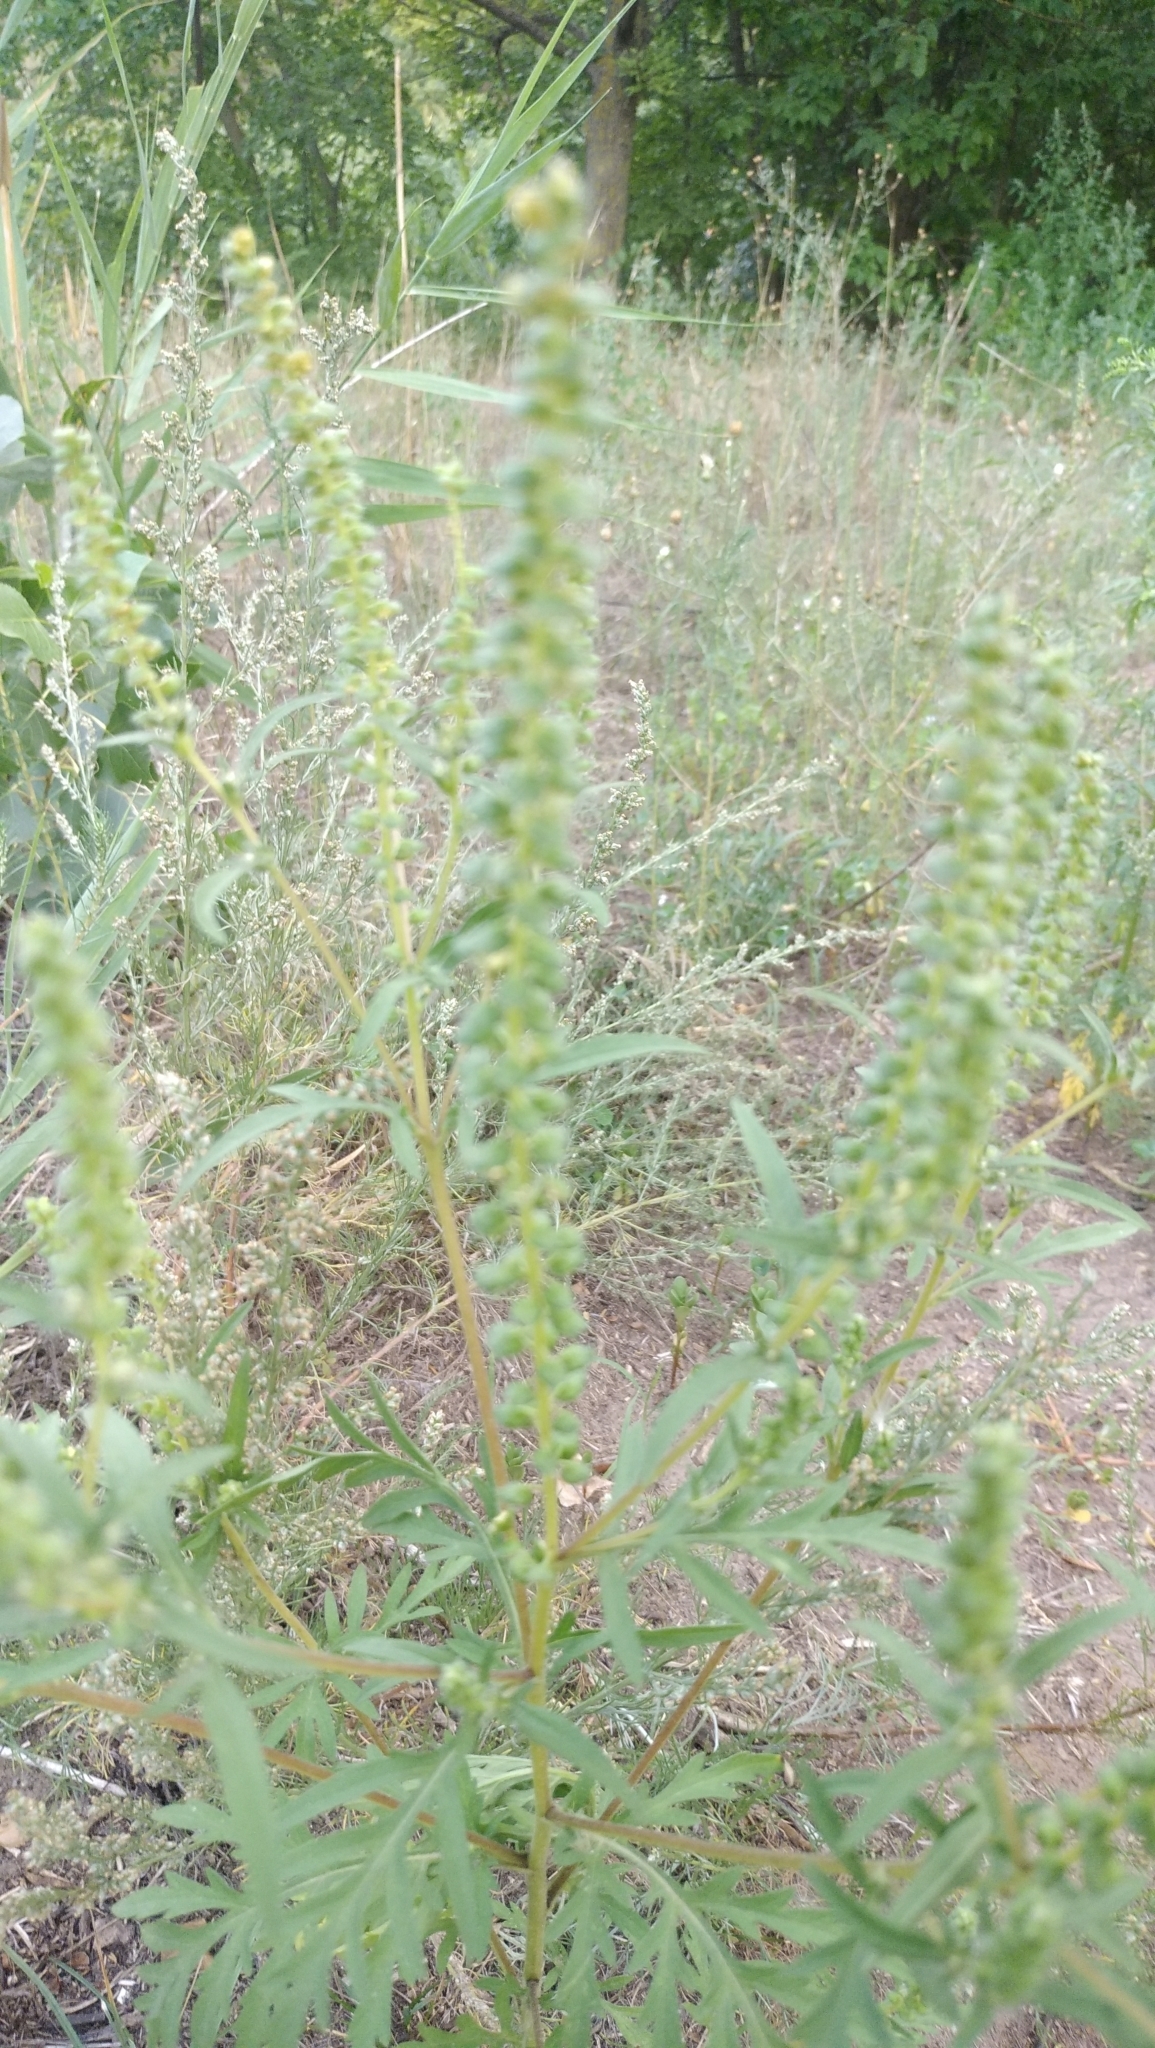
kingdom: Plantae
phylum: Tracheophyta
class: Magnoliopsida
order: Asterales
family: Asteraceae
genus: Ambrosia
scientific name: Ambrosia artemisiifolia
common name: Annual ragweed
